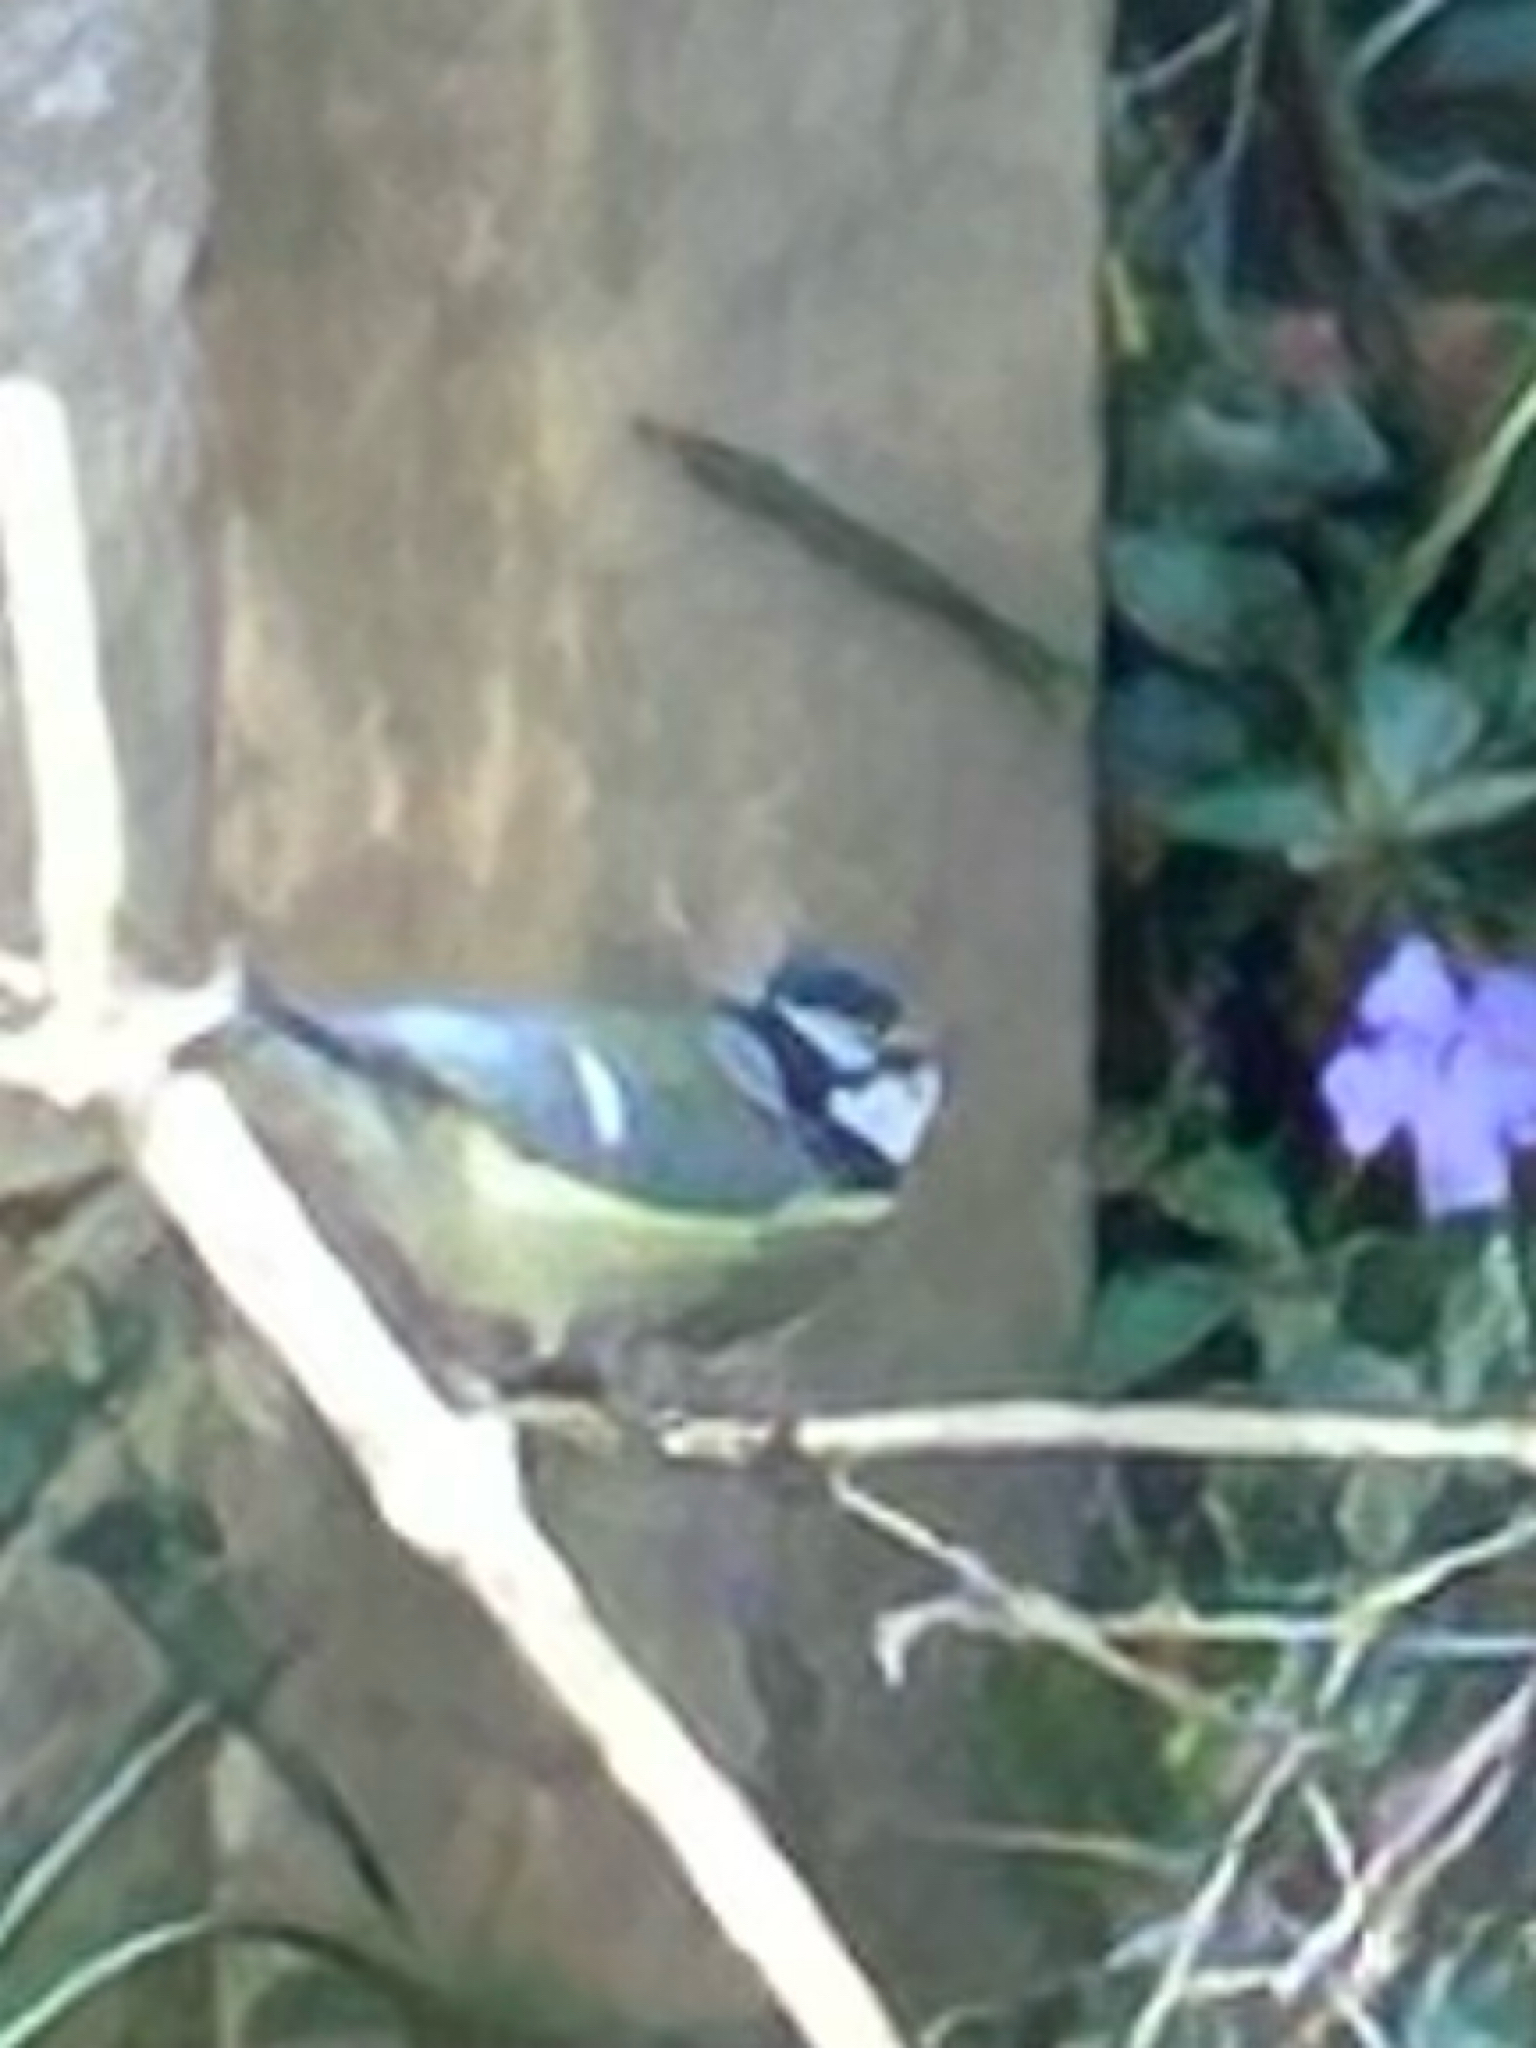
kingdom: Animalia
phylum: Chordata
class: Aves
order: Passeriformes
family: Paridae
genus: Cyanistes
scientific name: Cyanistes caeruleus
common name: Eurasian blue tit
